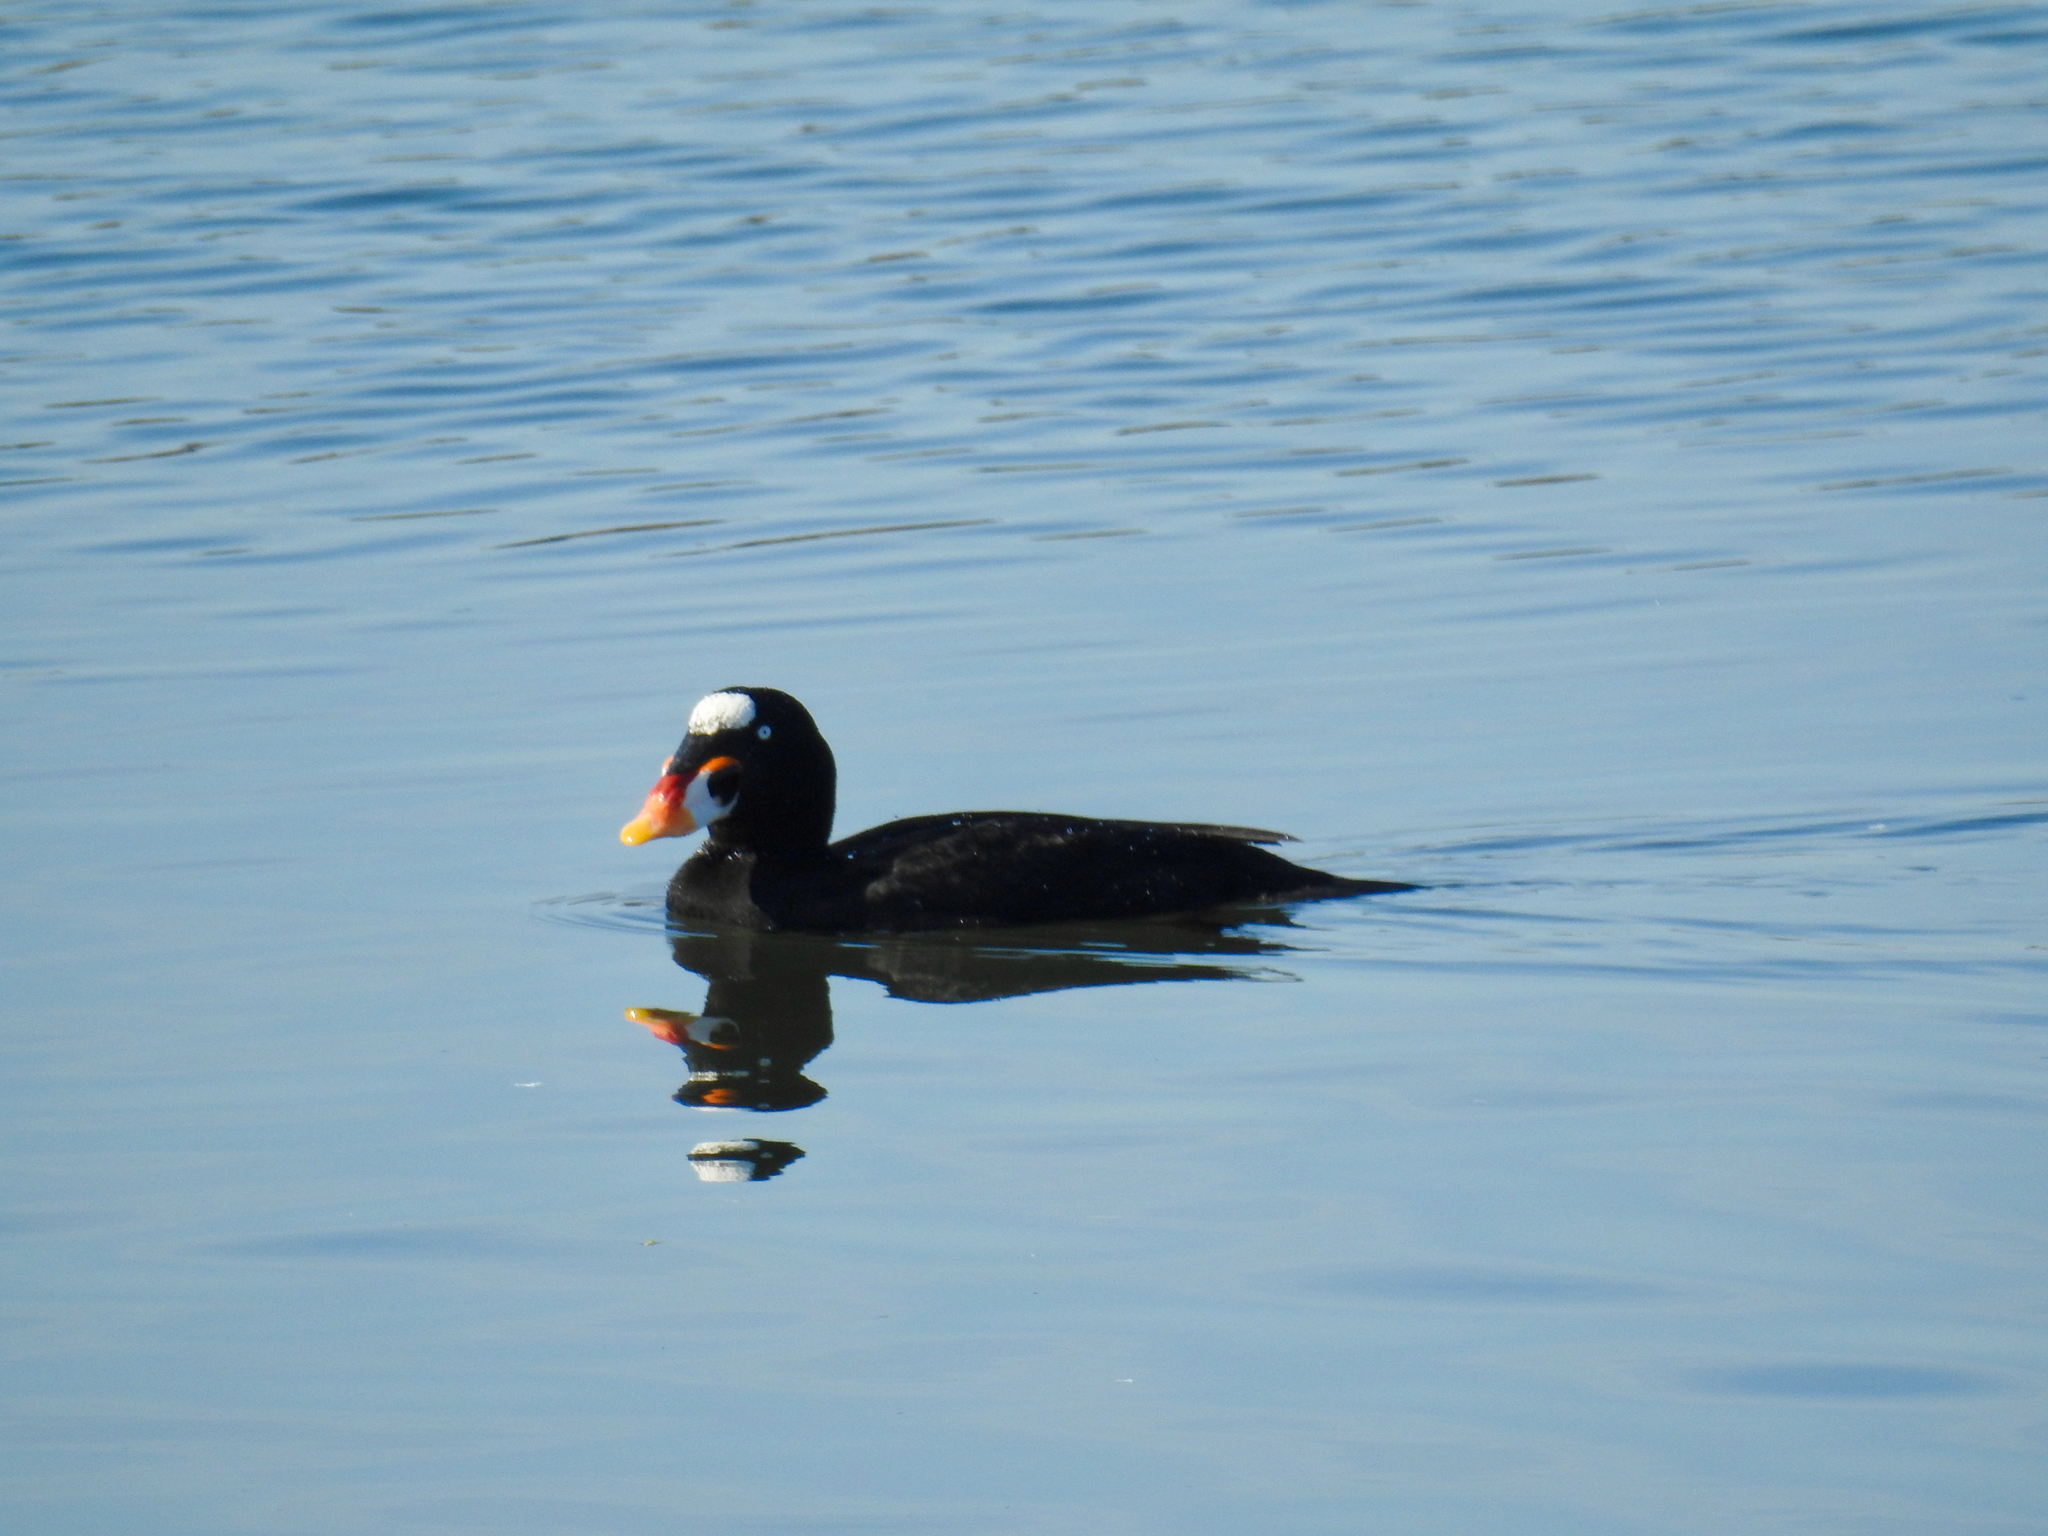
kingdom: Animalia
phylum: Chordata
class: Aves
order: Anseriformes
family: Anatidae
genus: Melanitta
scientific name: Melanitta perspicillata
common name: Surf scoter
